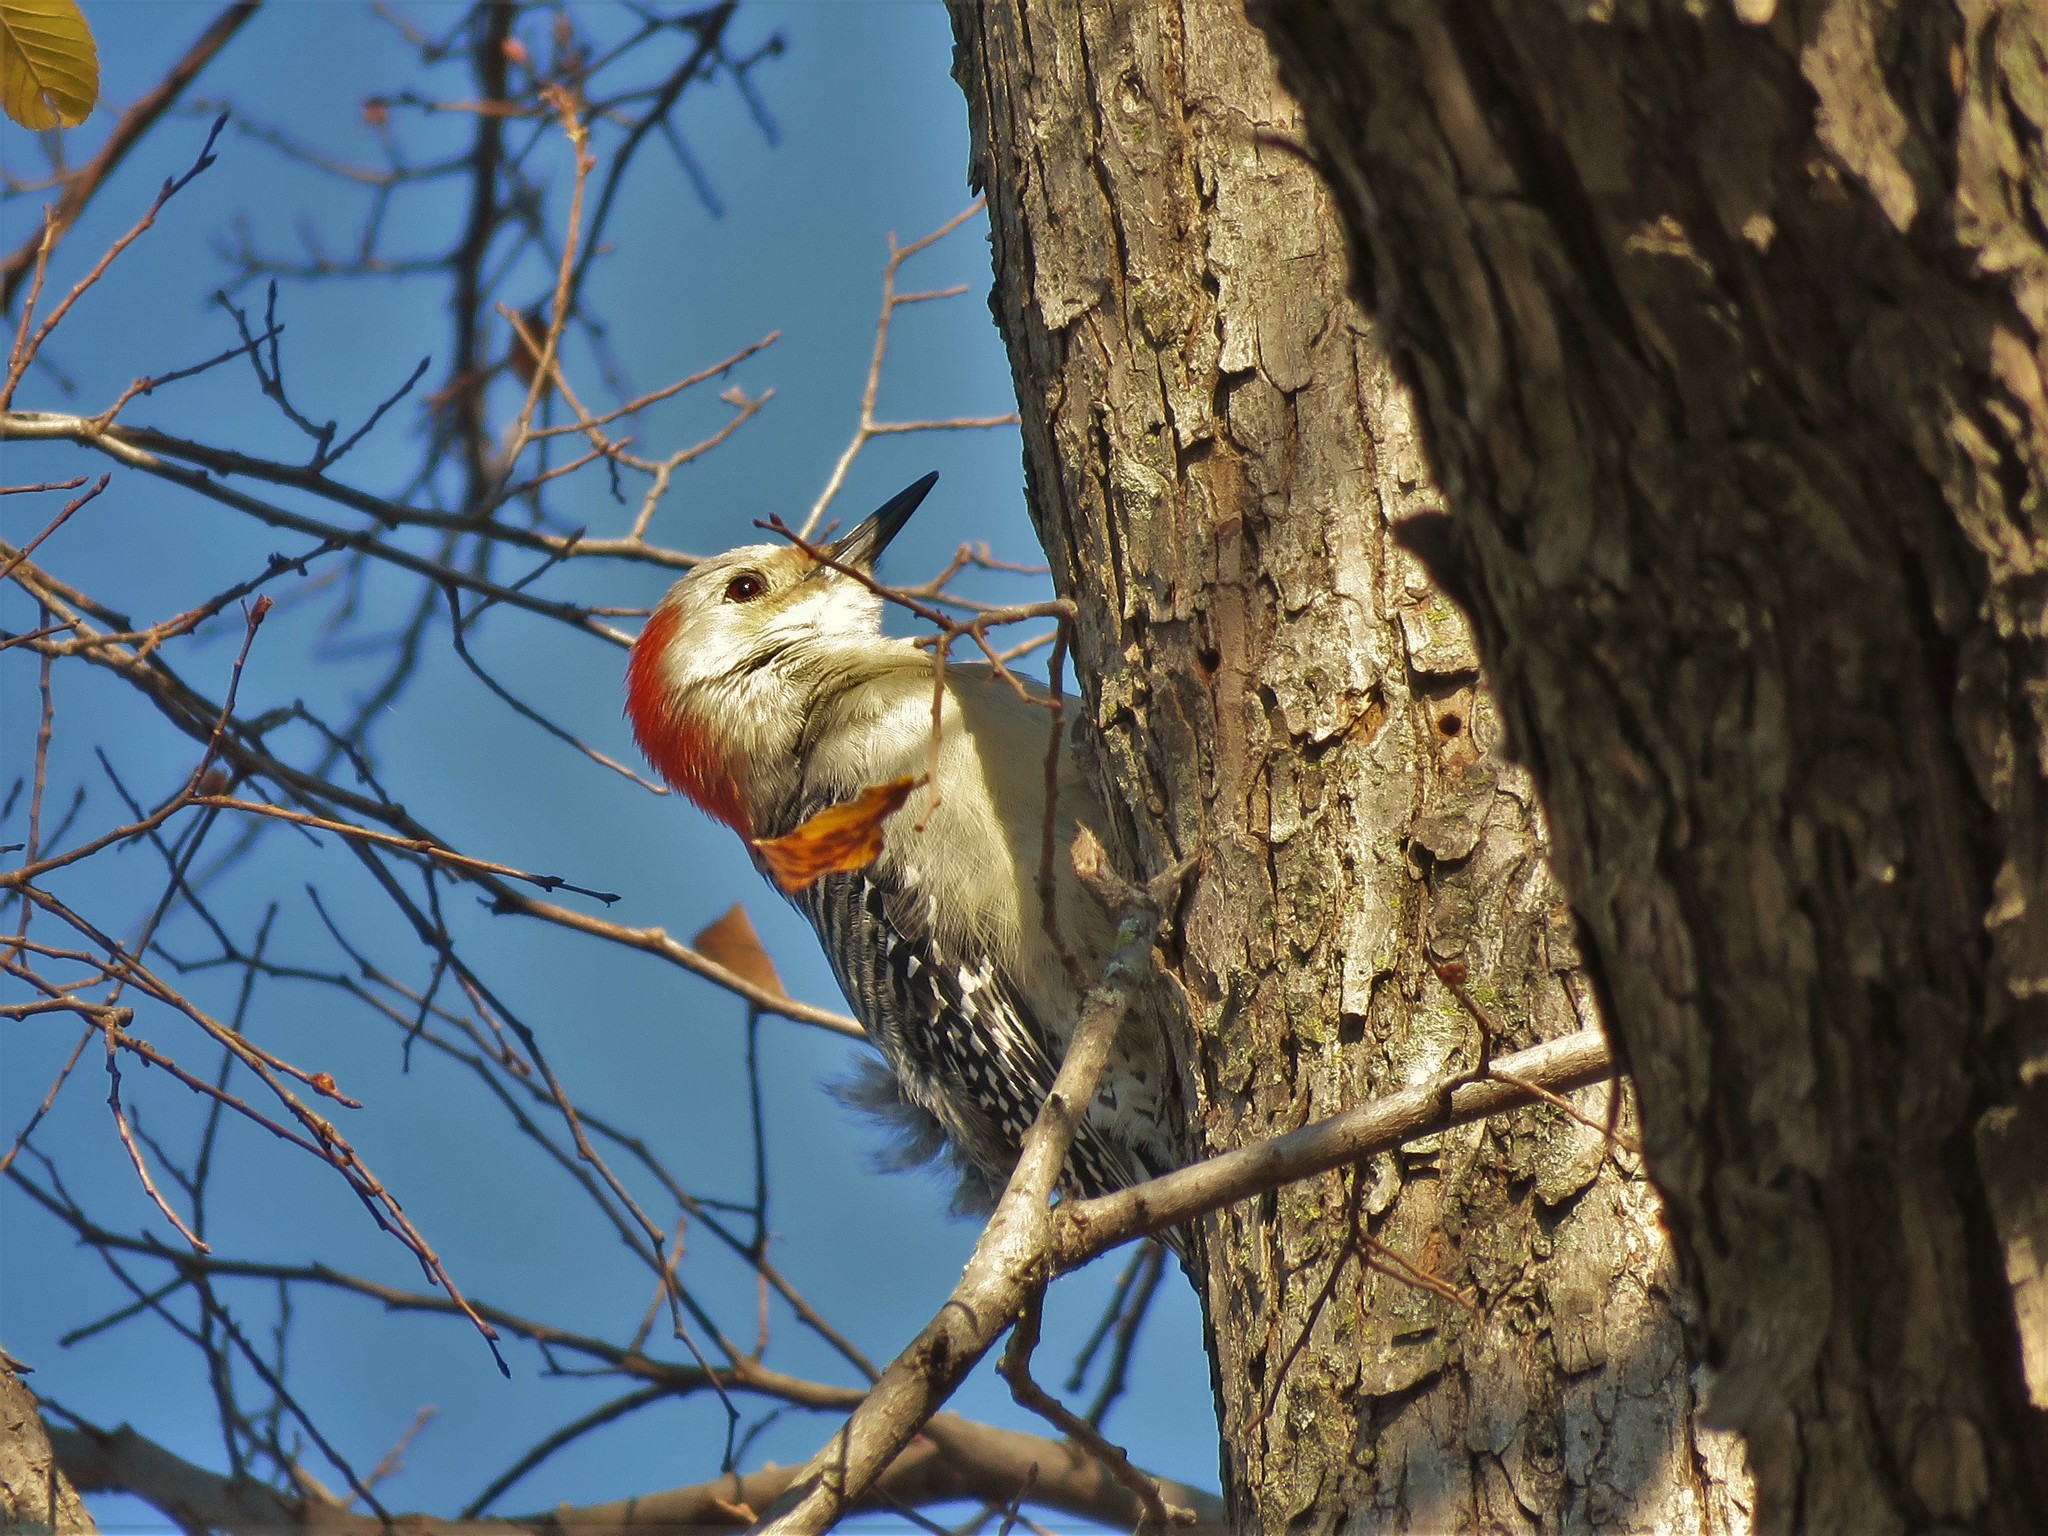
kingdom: Animalia
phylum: Chordata
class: Aves
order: Piciformes
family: Picidae
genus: Melanerpes
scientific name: Melanerpes carolinus
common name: Red-bellied woodpecker
